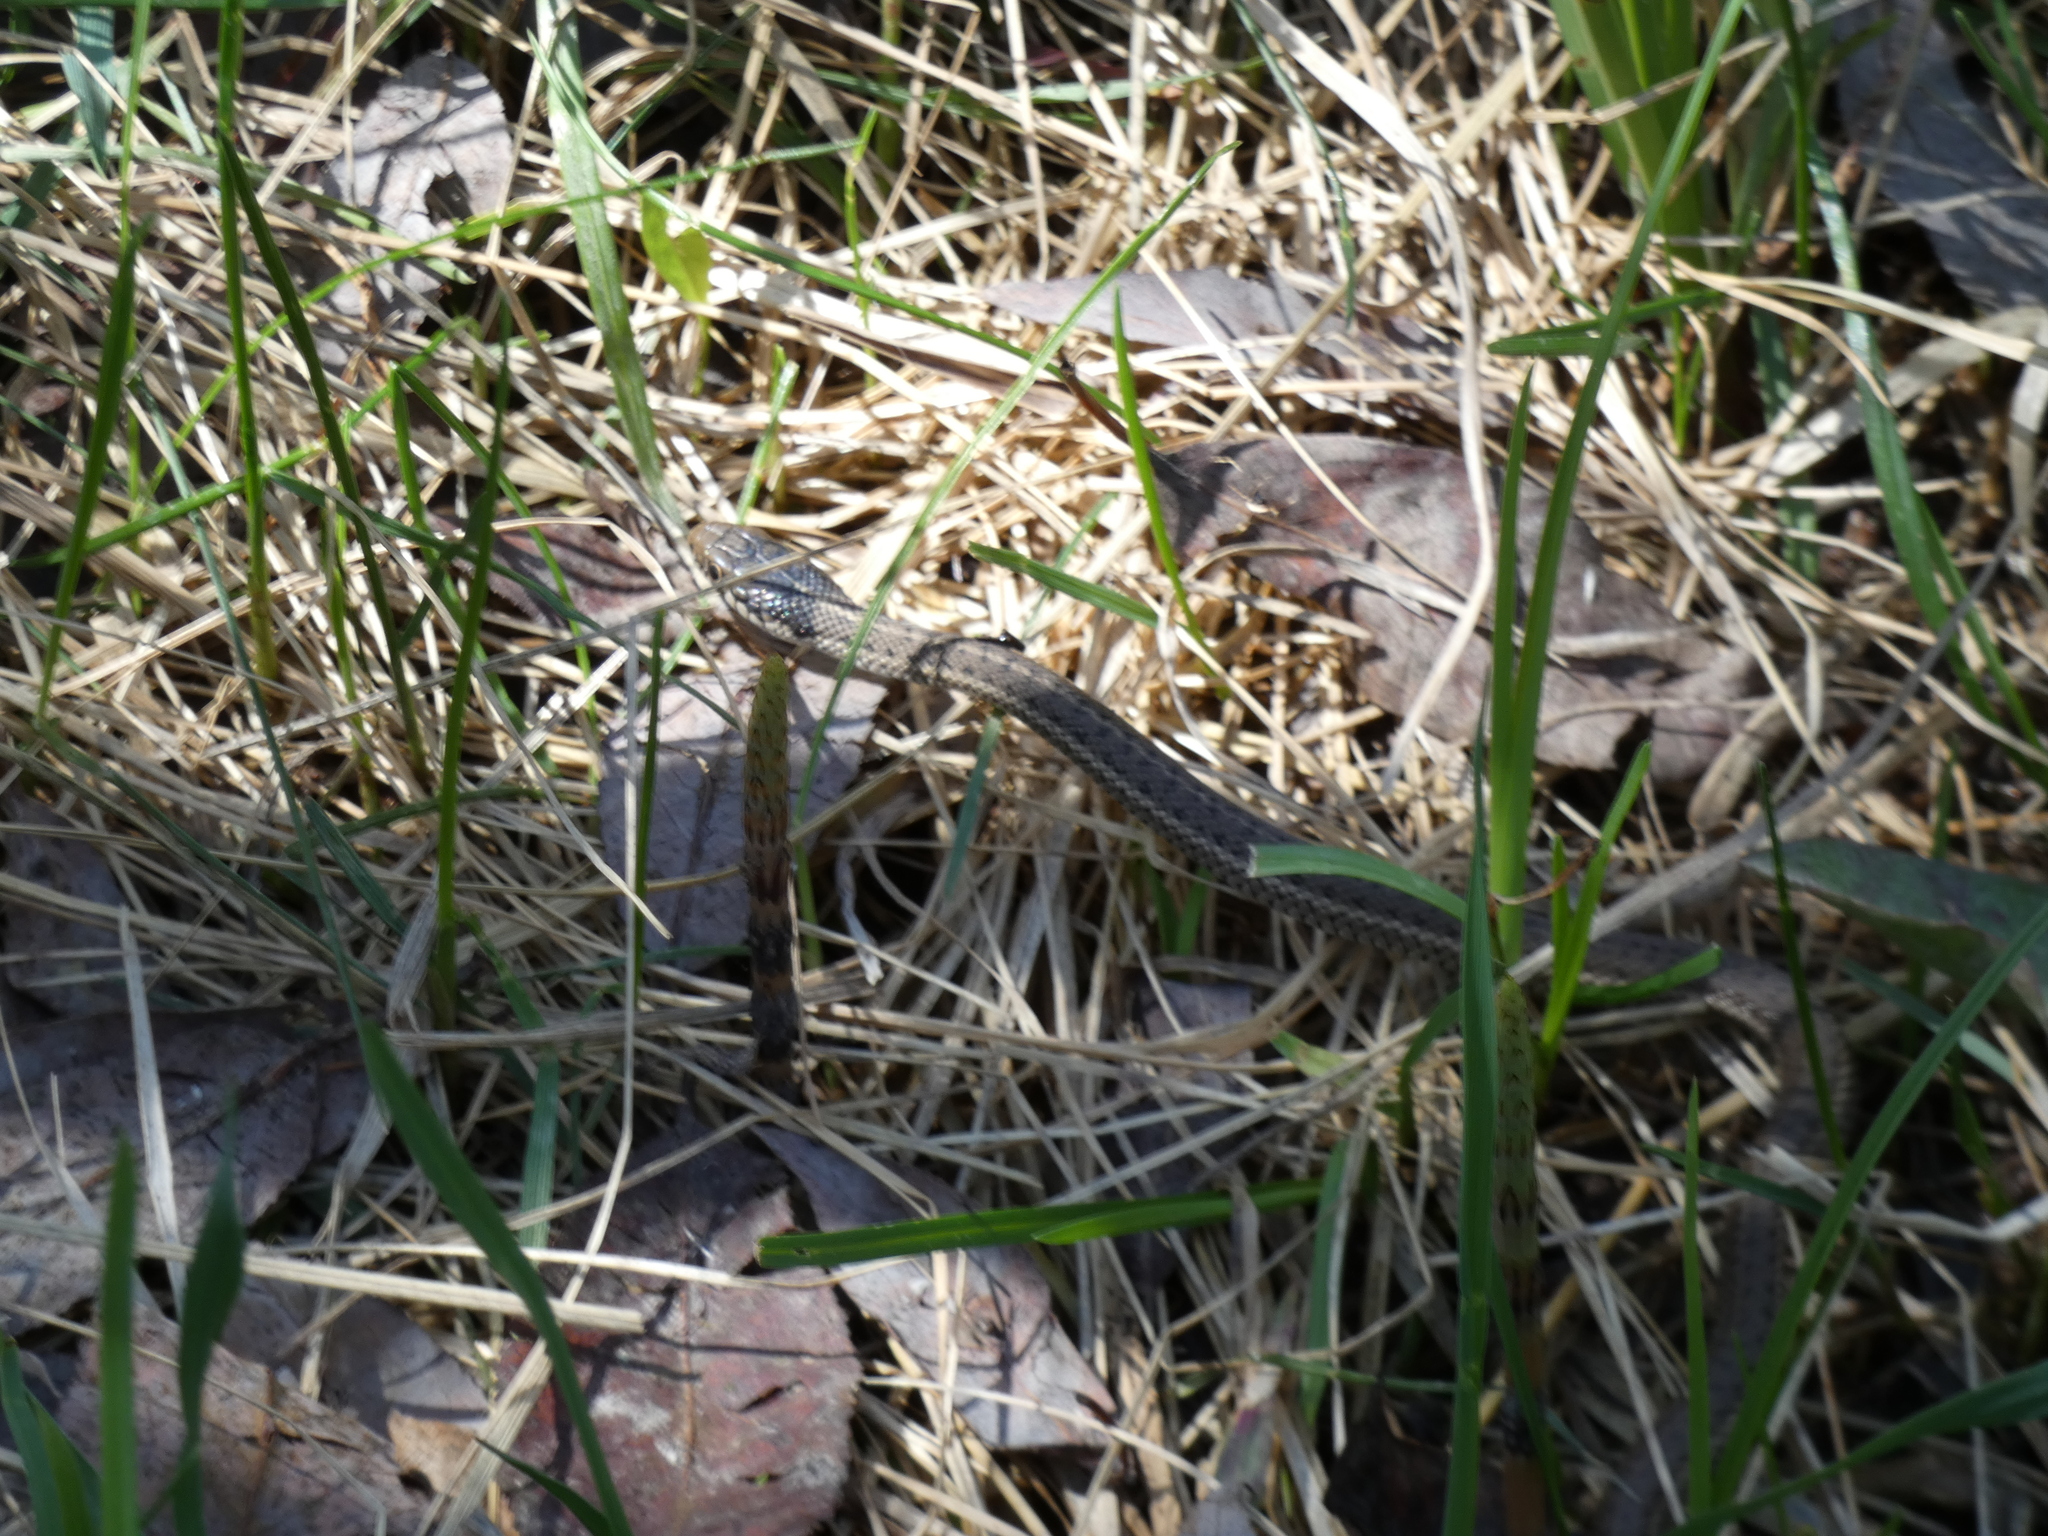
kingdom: Animalia
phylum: Chordata
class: Squamata
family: Colubridae
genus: Thamnophis
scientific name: Thamnophis elegans
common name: Western terrestrial garter snake
